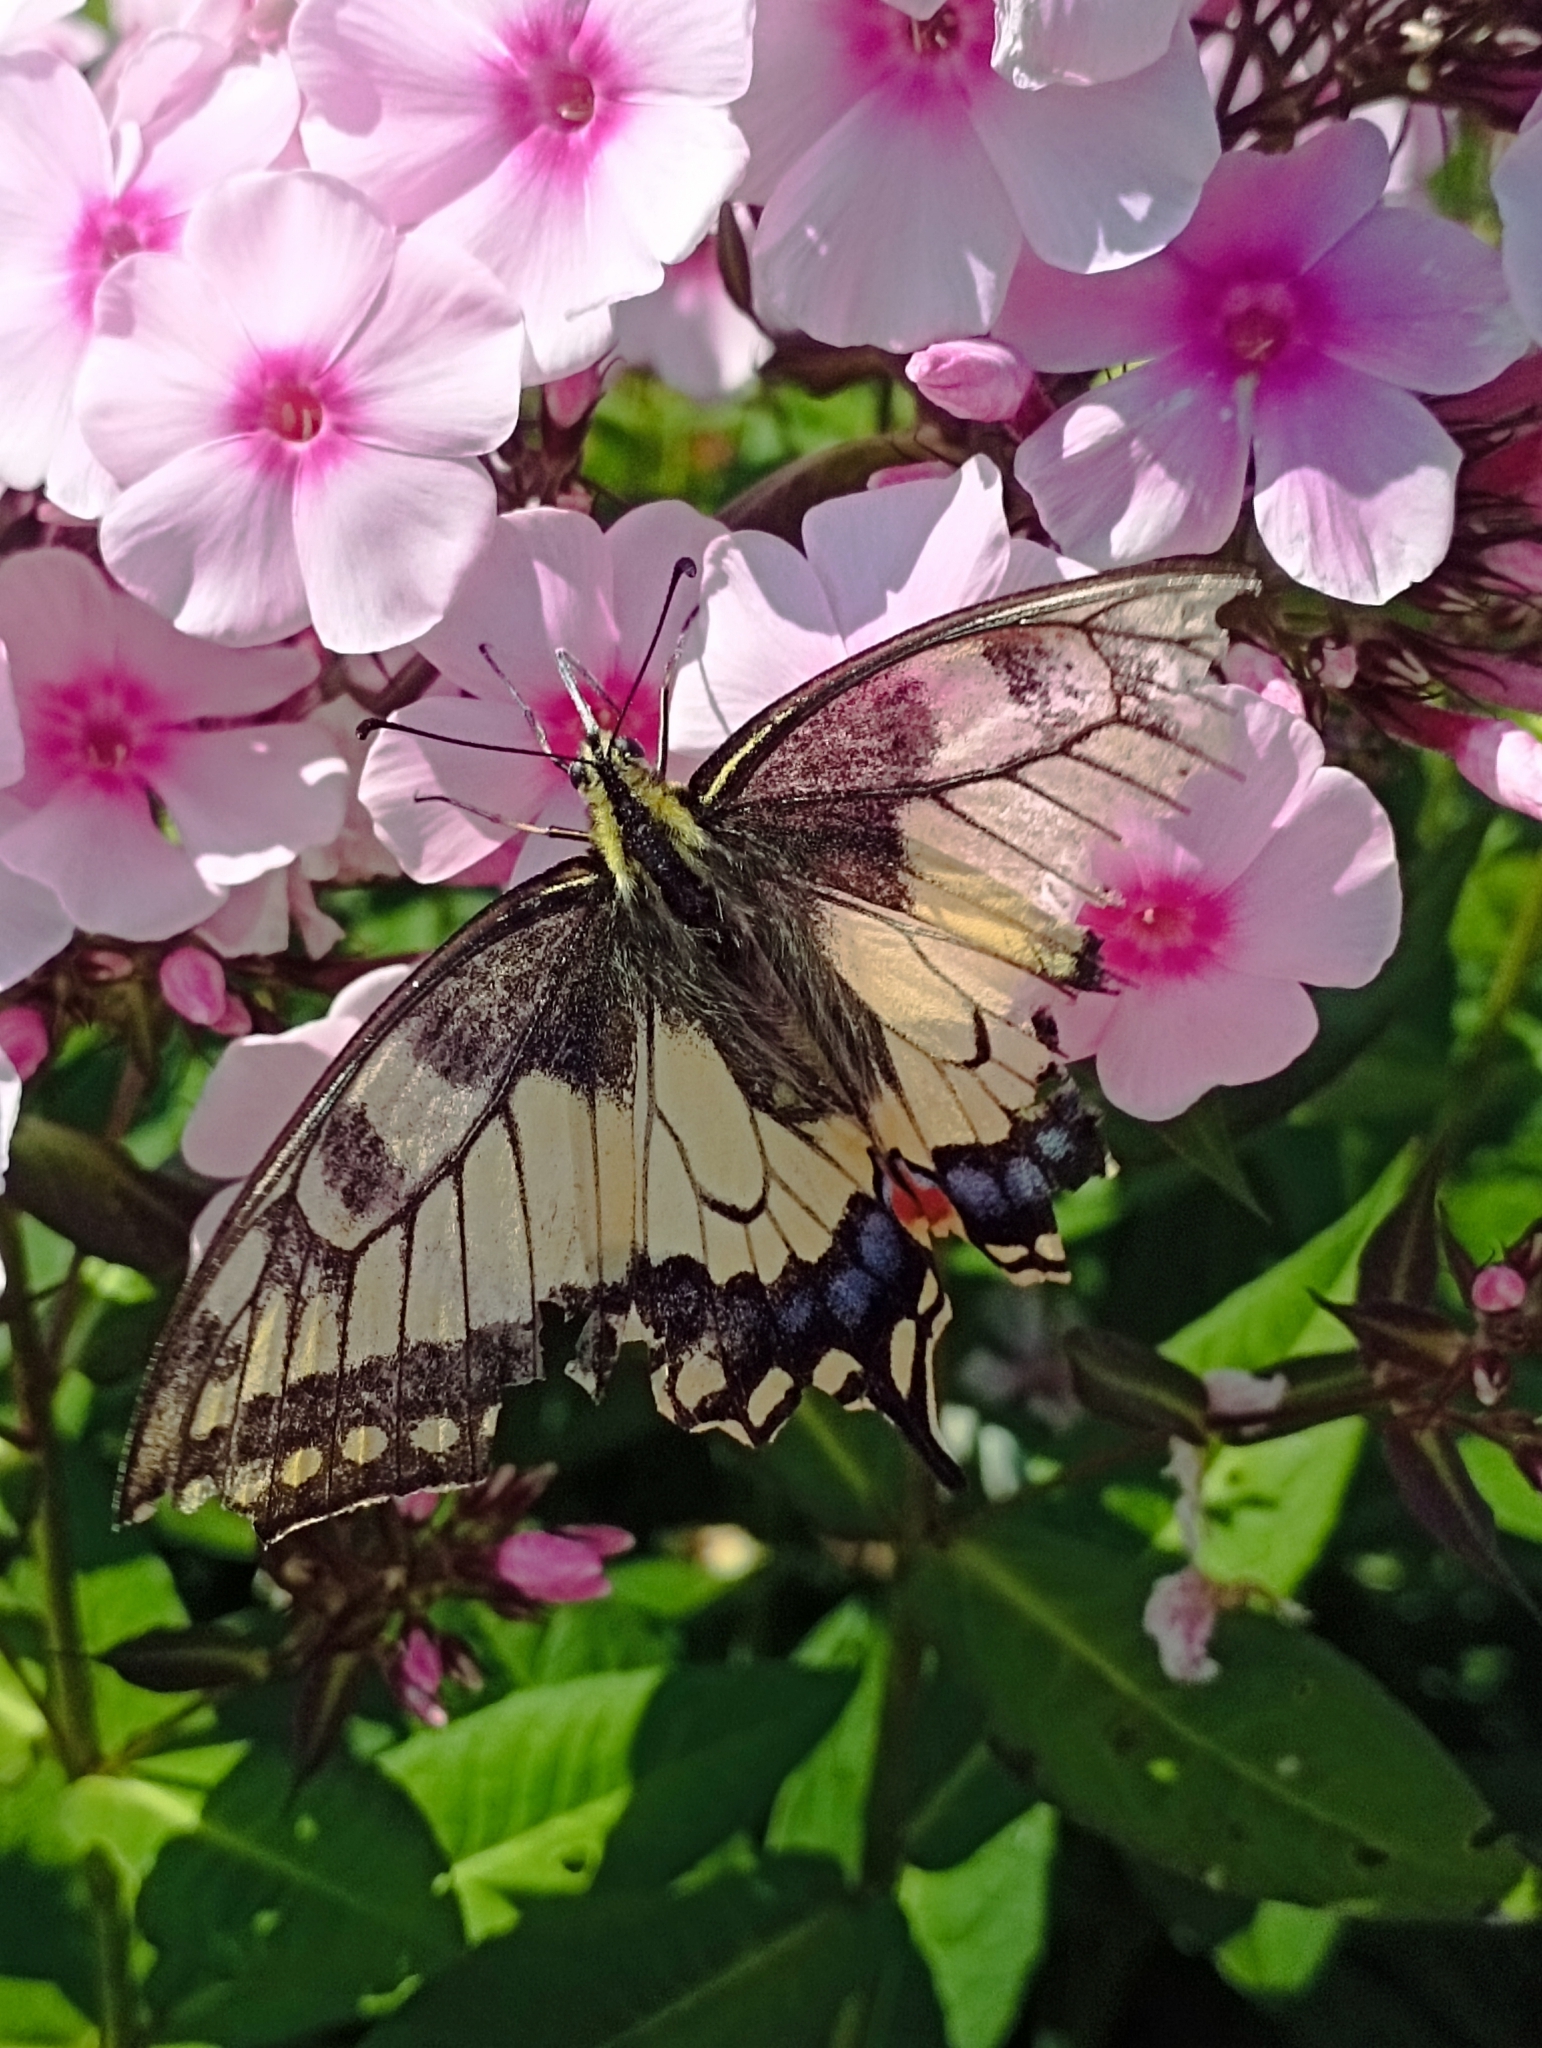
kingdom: Animalia
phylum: Arthropoda
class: Insecta
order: Lepidoptera
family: Papilionidae
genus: Papilio
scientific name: Papilio machaon
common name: Swallowtail
